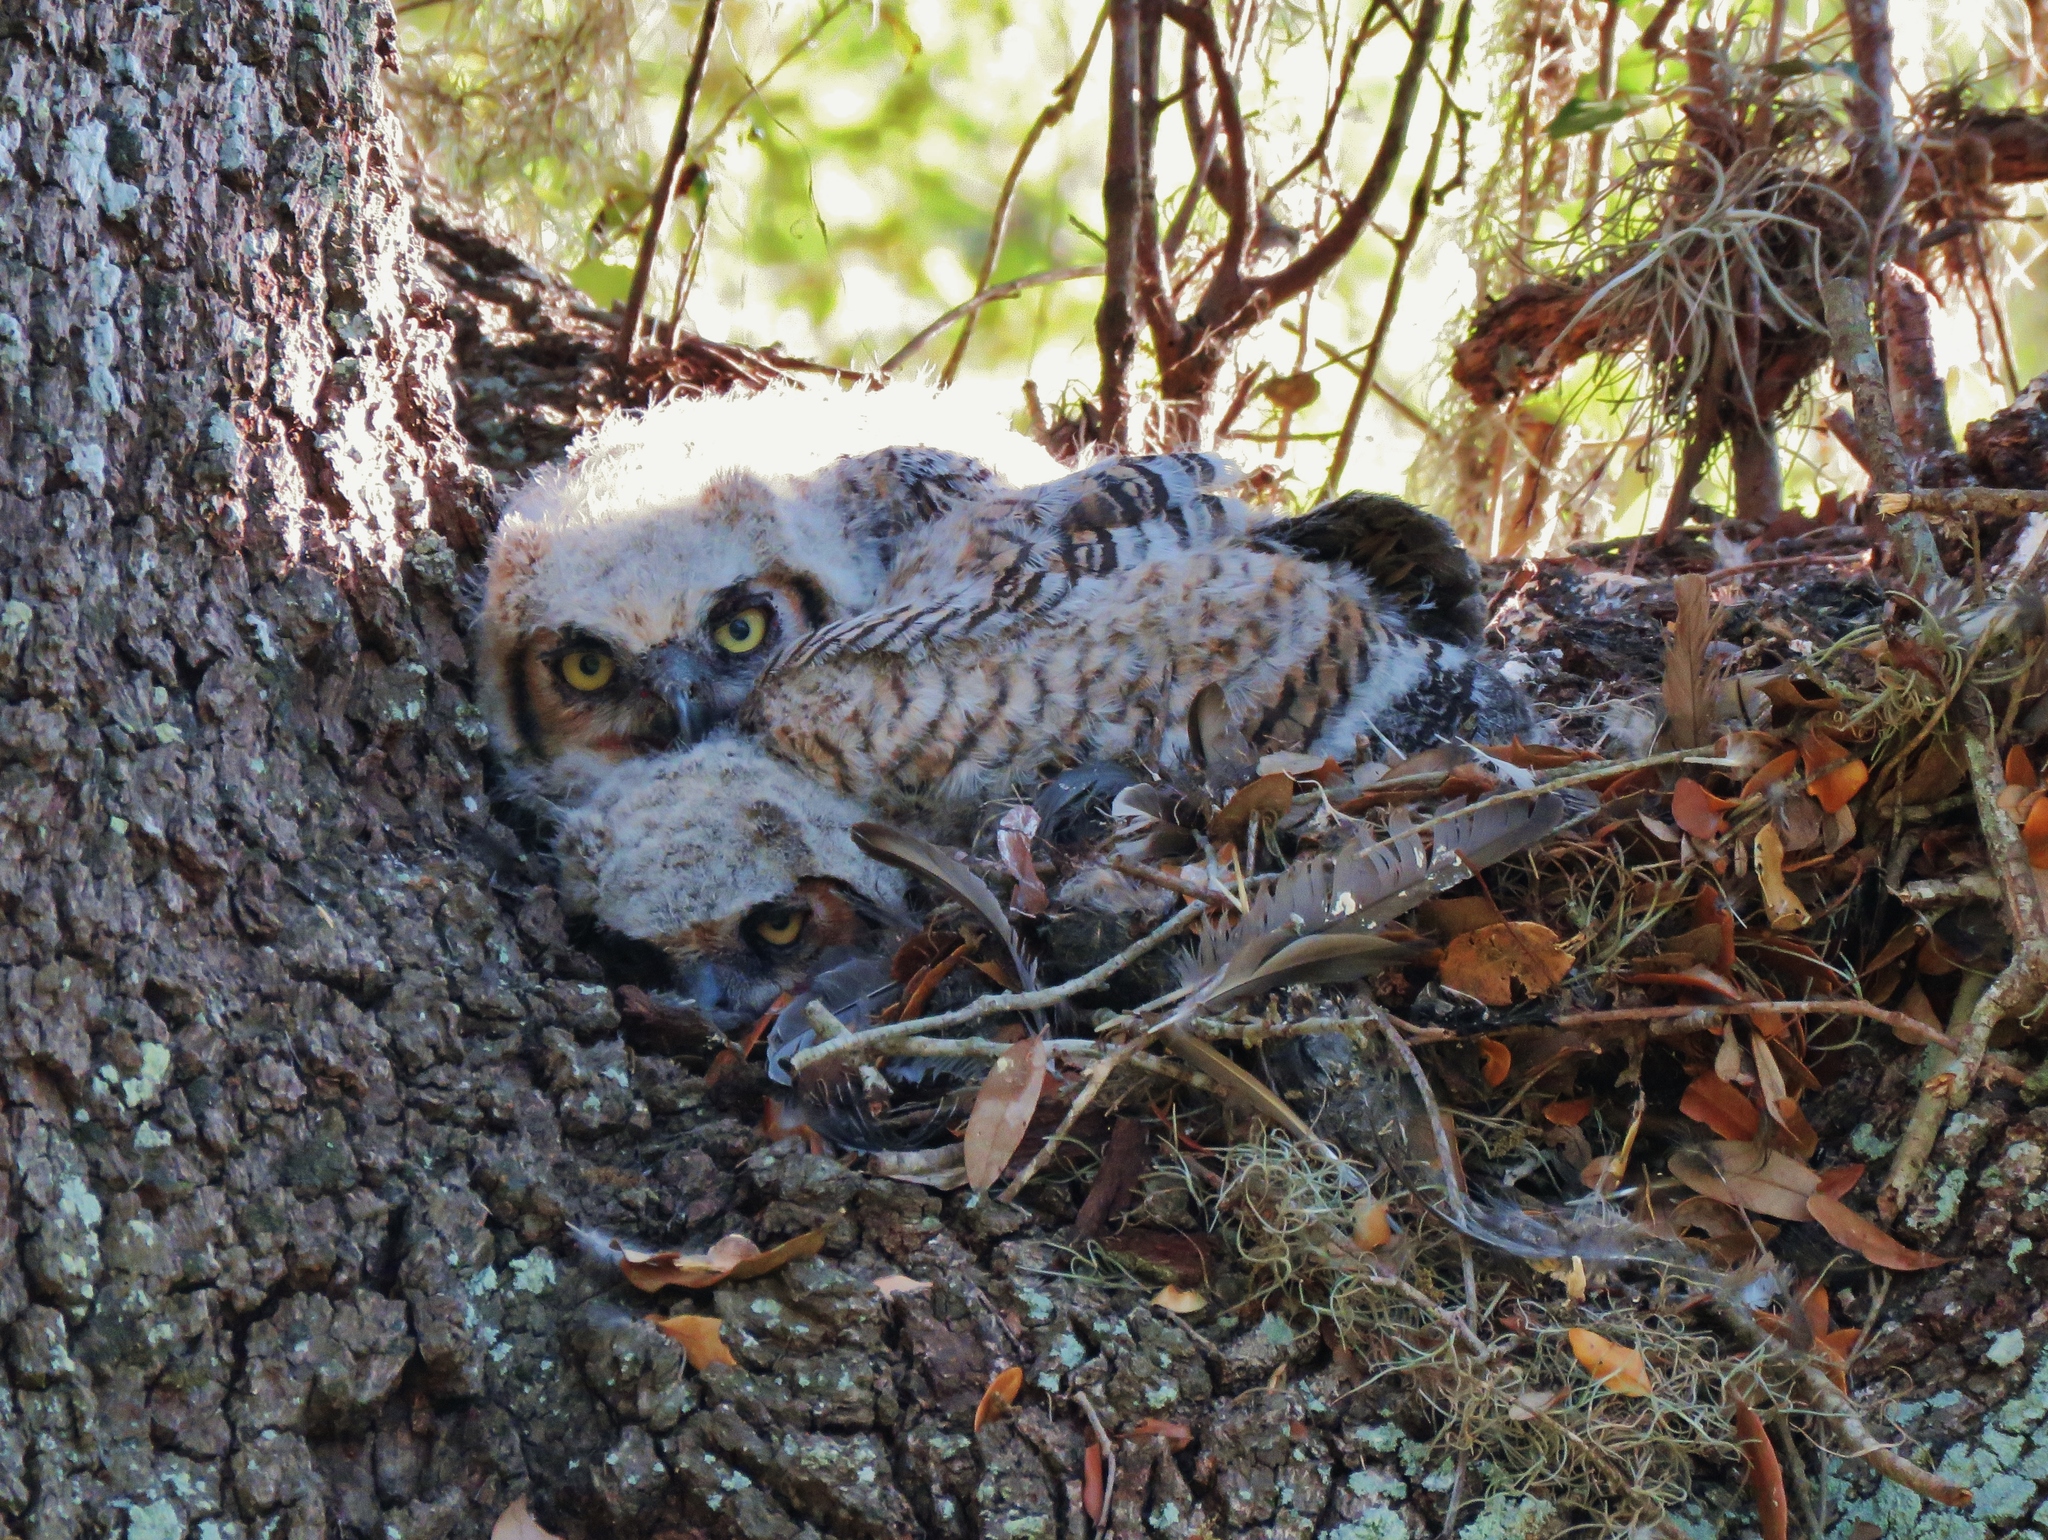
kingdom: Animalia
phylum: Chordata
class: Aves
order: Strigiformes
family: Strigidae
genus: Bubo
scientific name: Bubo virginianus
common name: Great horned owl
